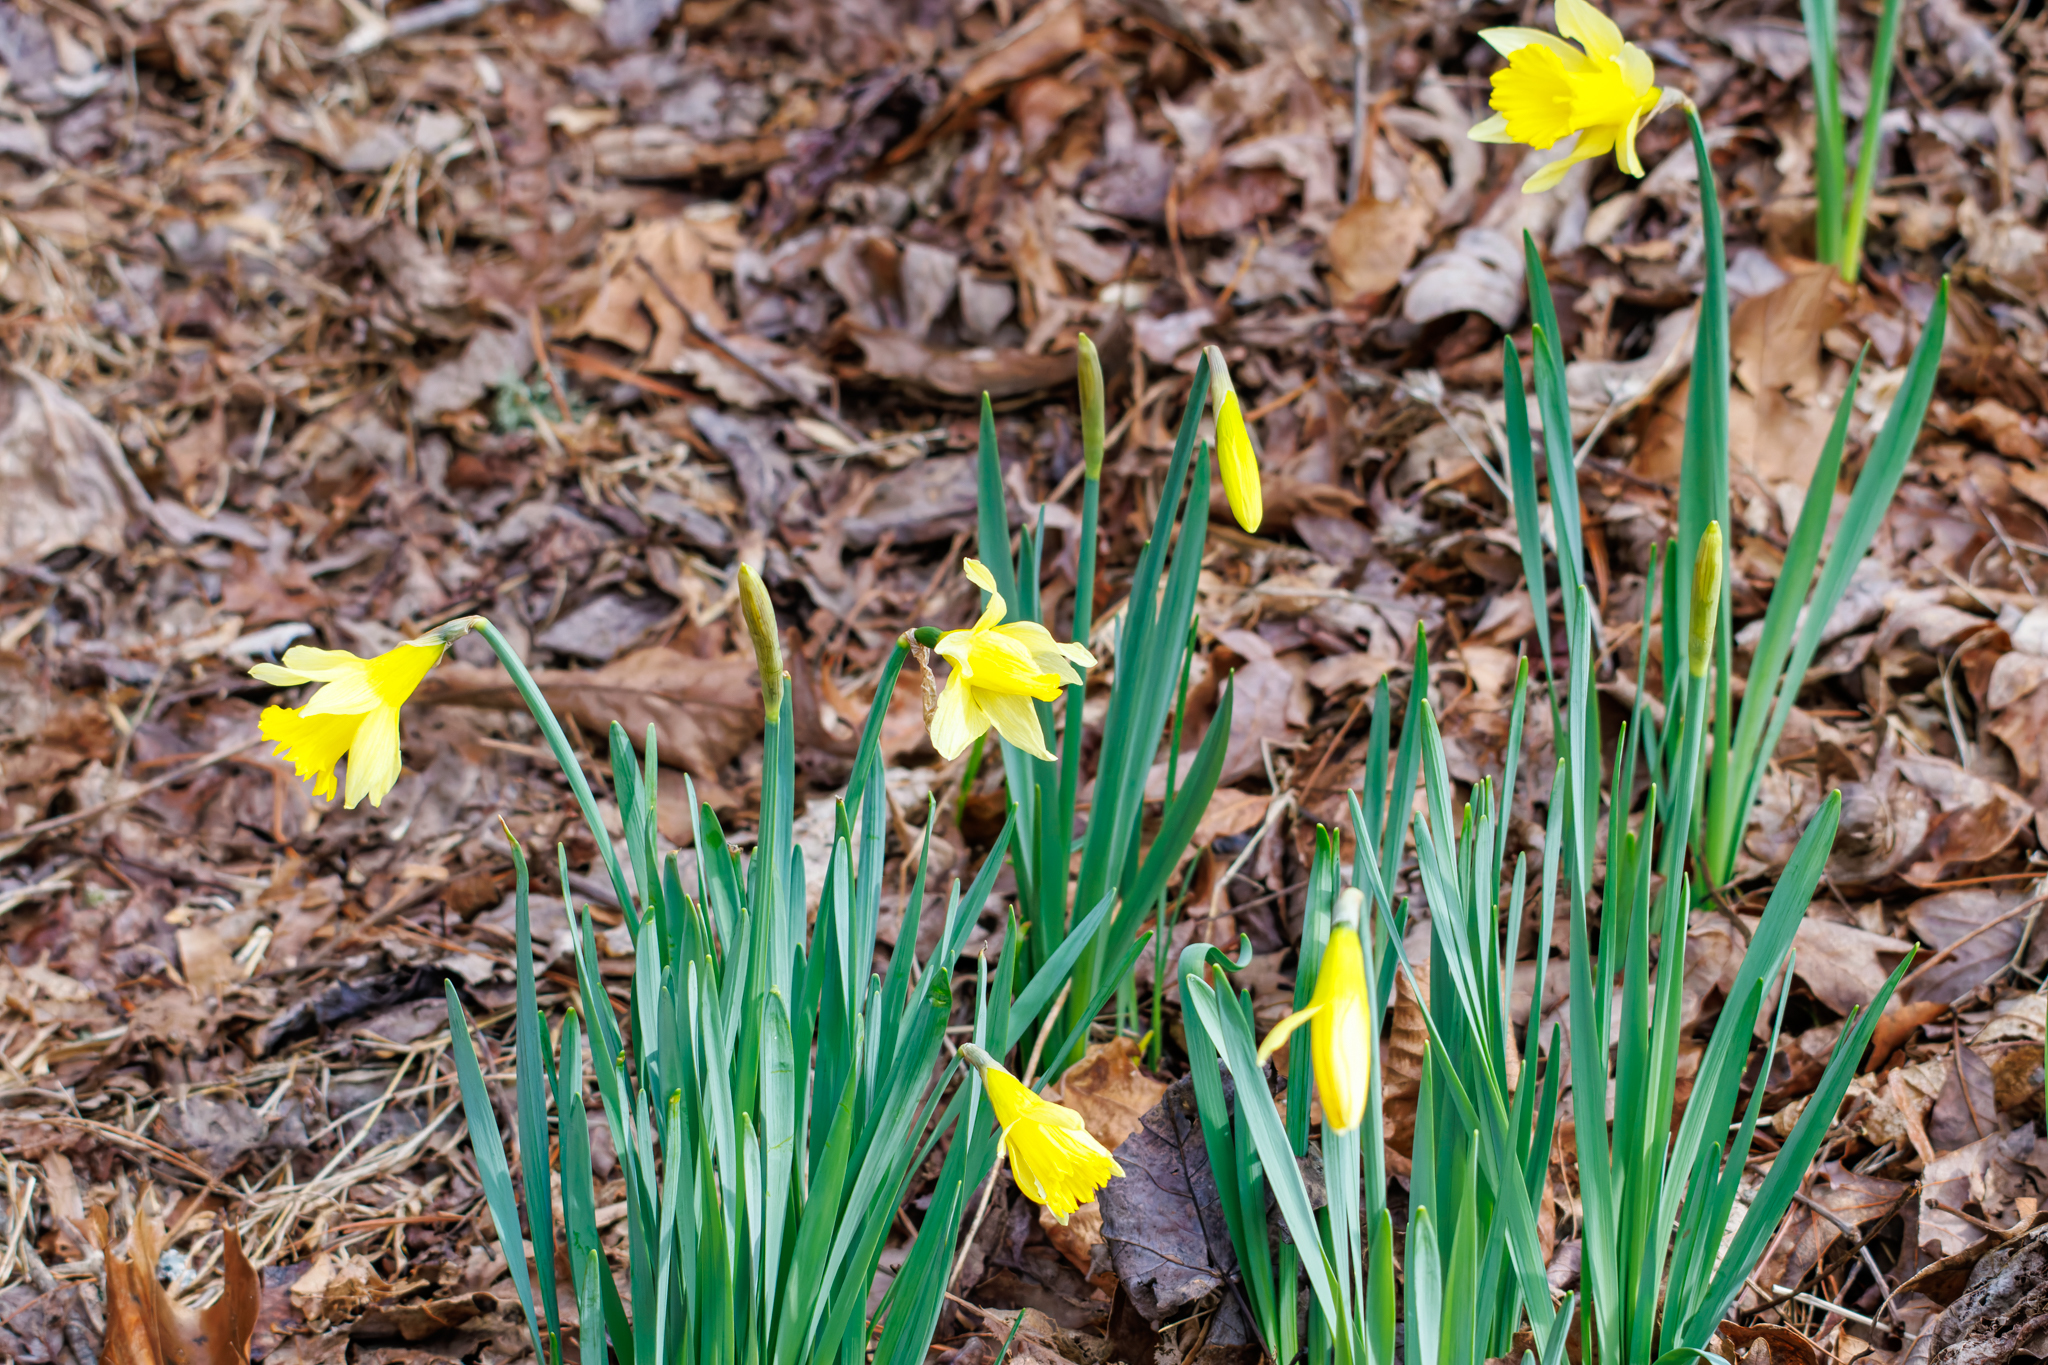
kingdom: Plantae
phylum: Tracheophyta
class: Liliopsida
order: Asparagales
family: Amaryllidaceae
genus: Narcissus
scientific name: Narcissus pseudonarcissus
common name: Daffodil
